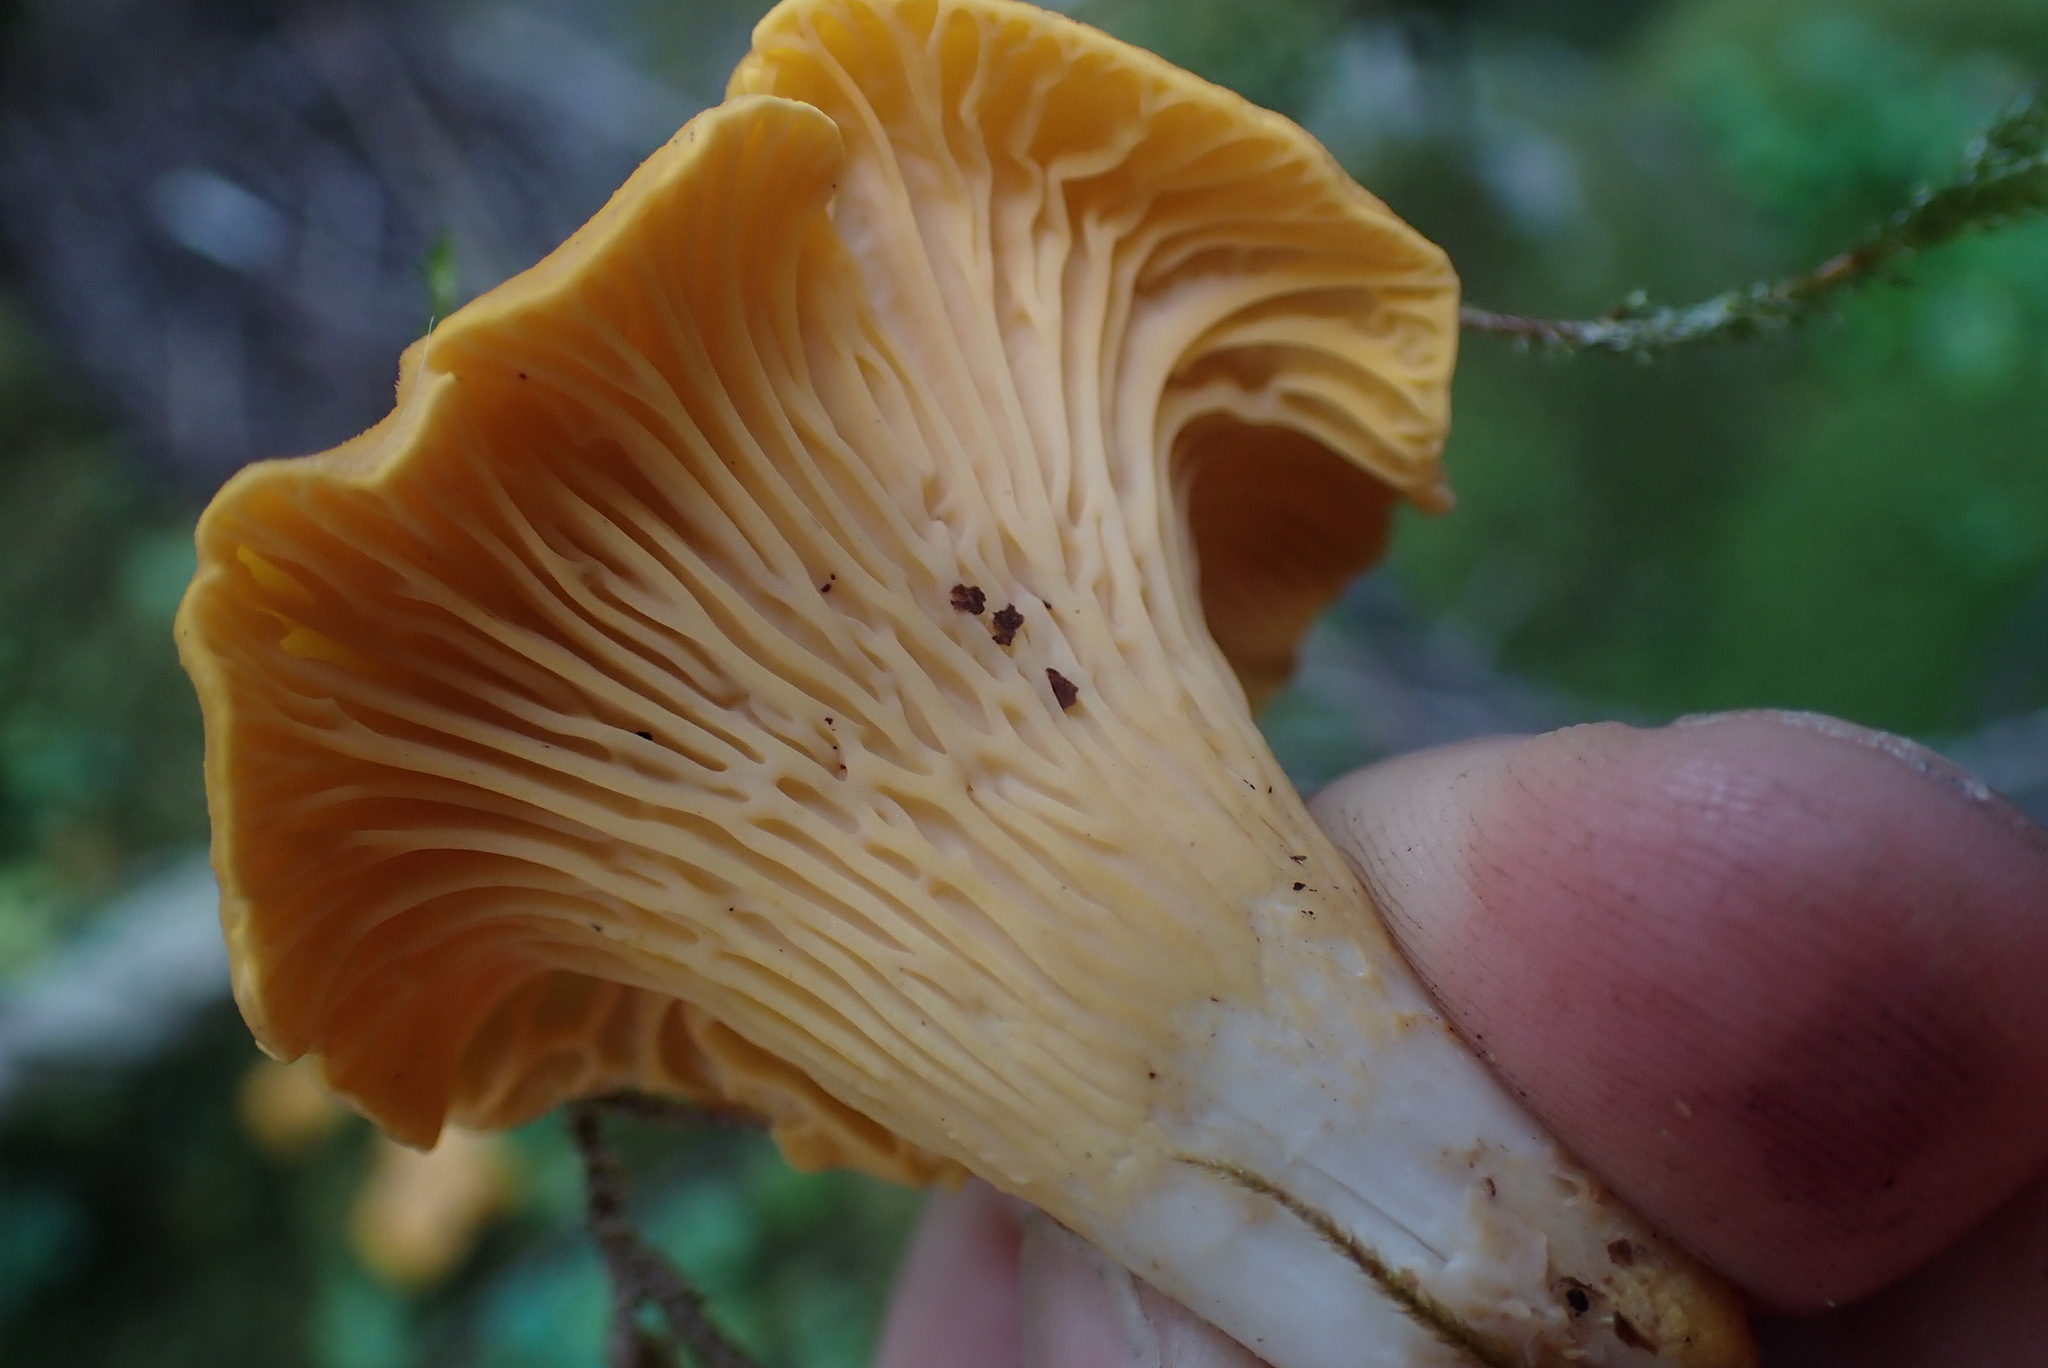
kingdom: Fungi
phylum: Basidiomycota
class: Agaricomycetes
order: Cantharellales
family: Hydnaceae
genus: Cantharellus
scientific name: Cantharellus formosus
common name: Pacific golden chanterelle
